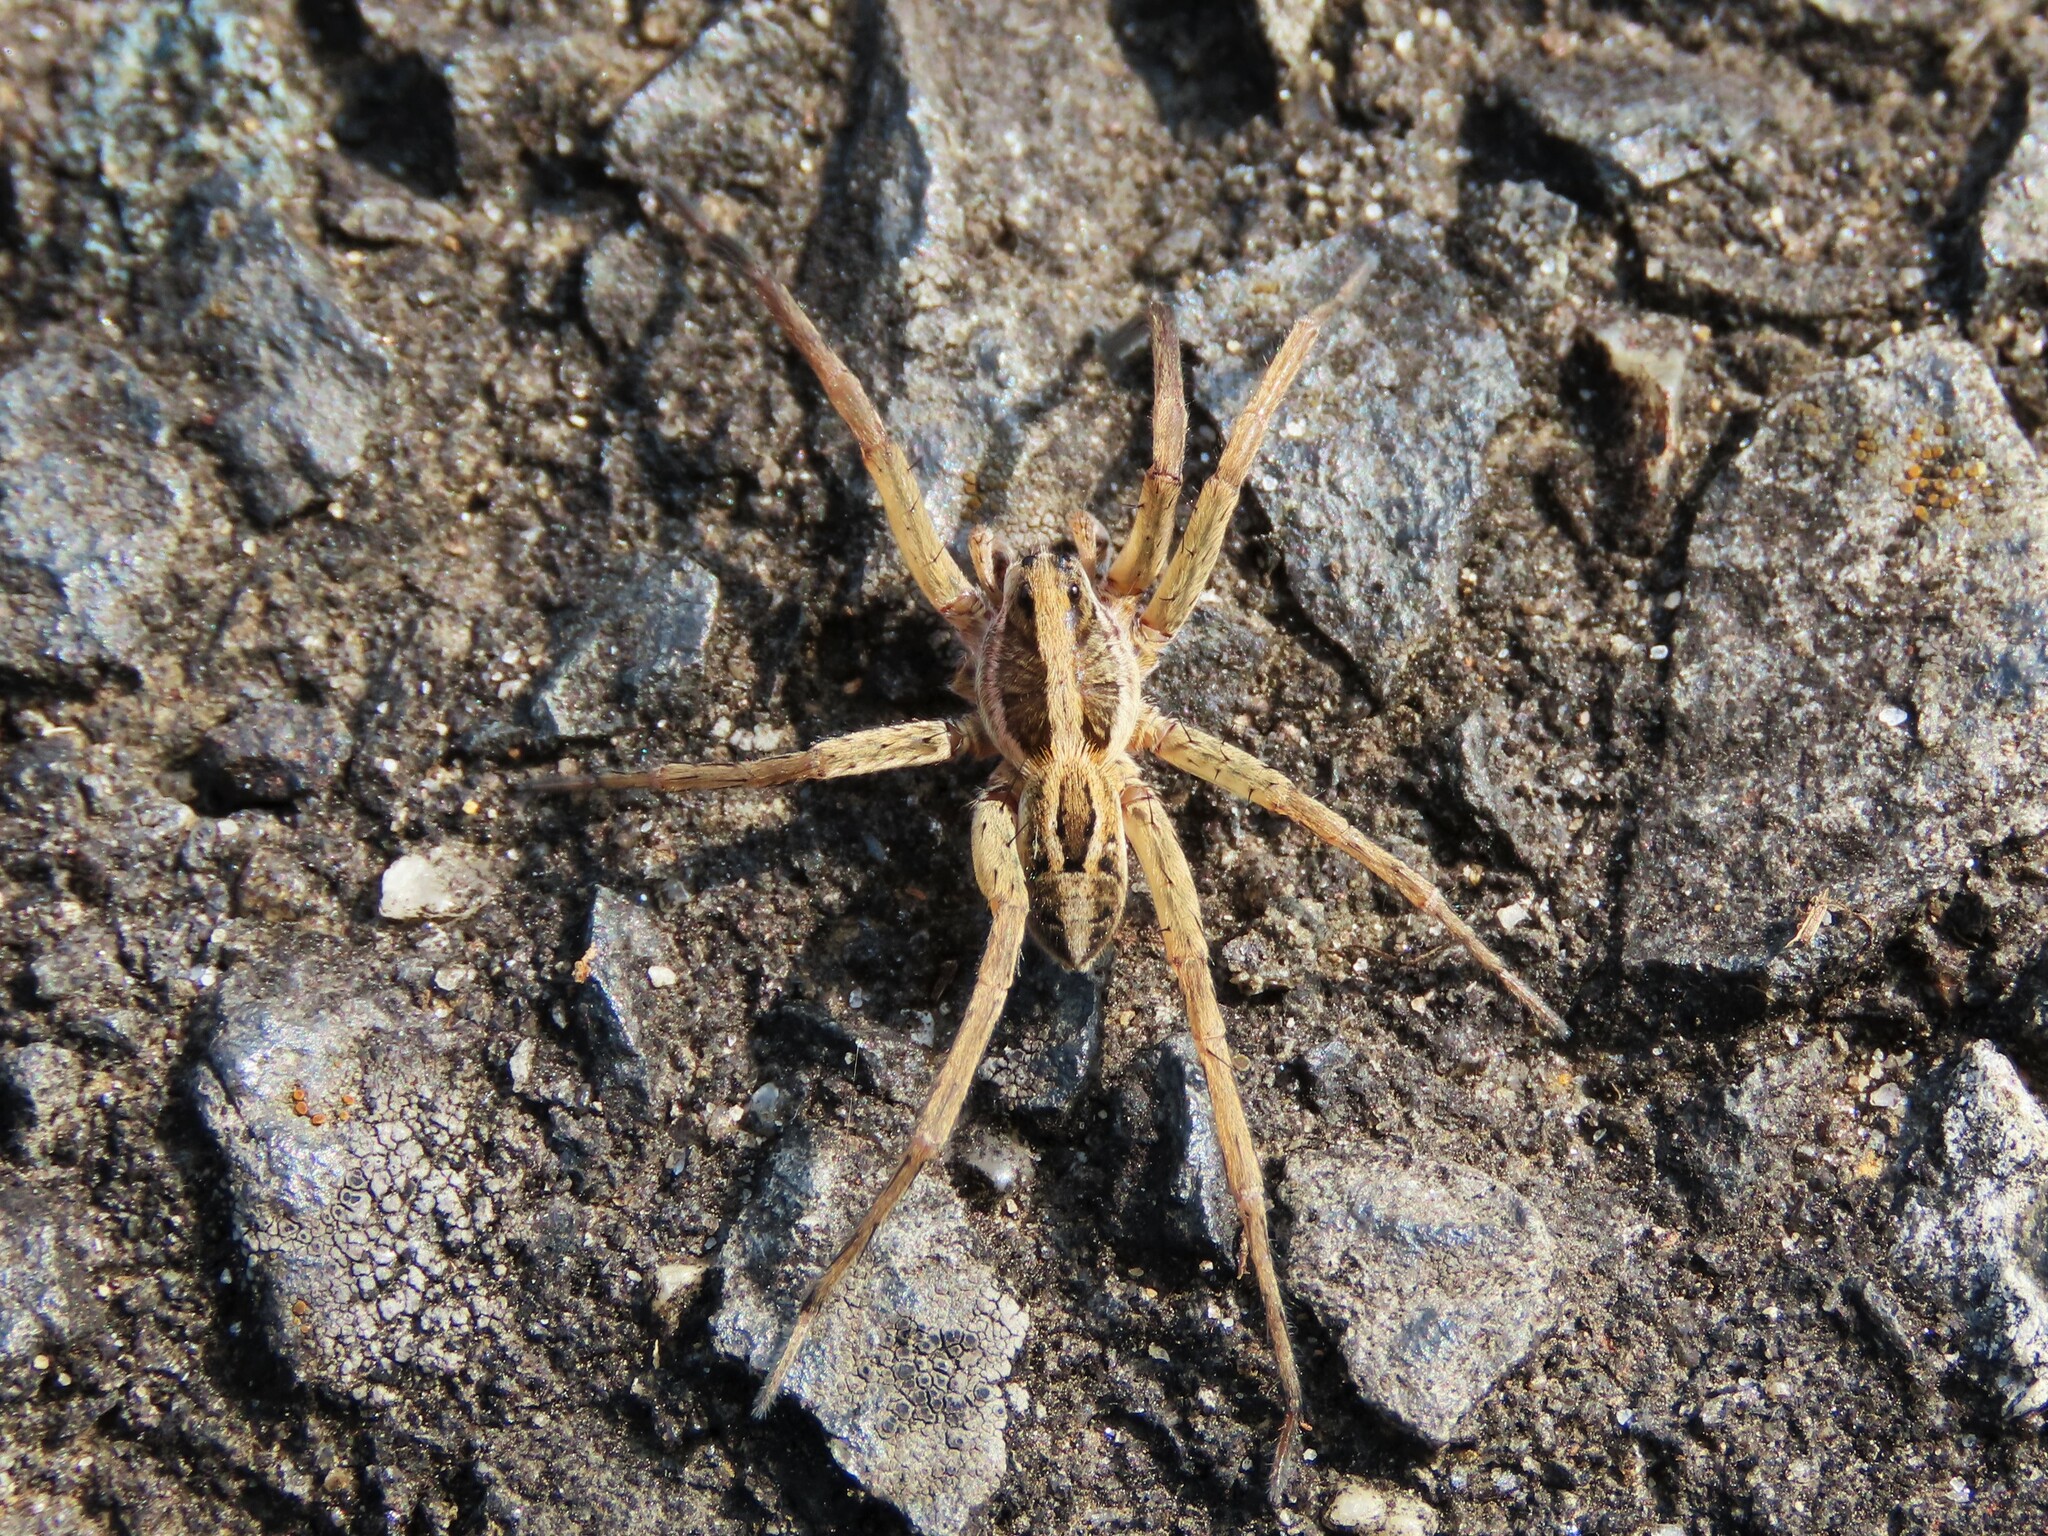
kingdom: Animalia
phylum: Arthropoda
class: Arachnida
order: Araneae
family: Lycosidae
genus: Schizocosa
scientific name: Schizocosa avida
